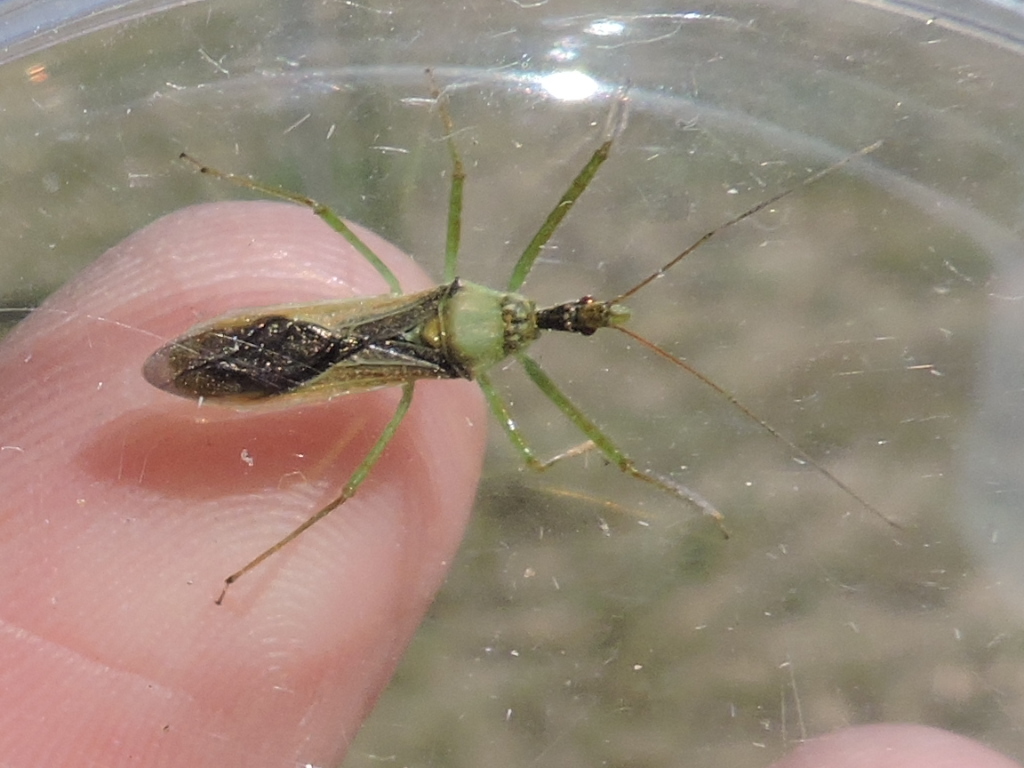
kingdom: Animalia
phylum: Arthropoda
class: Insecta
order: Hemiptera
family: Reduviidae
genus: Zelus
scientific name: Zelus renardii
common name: Assassin bug
